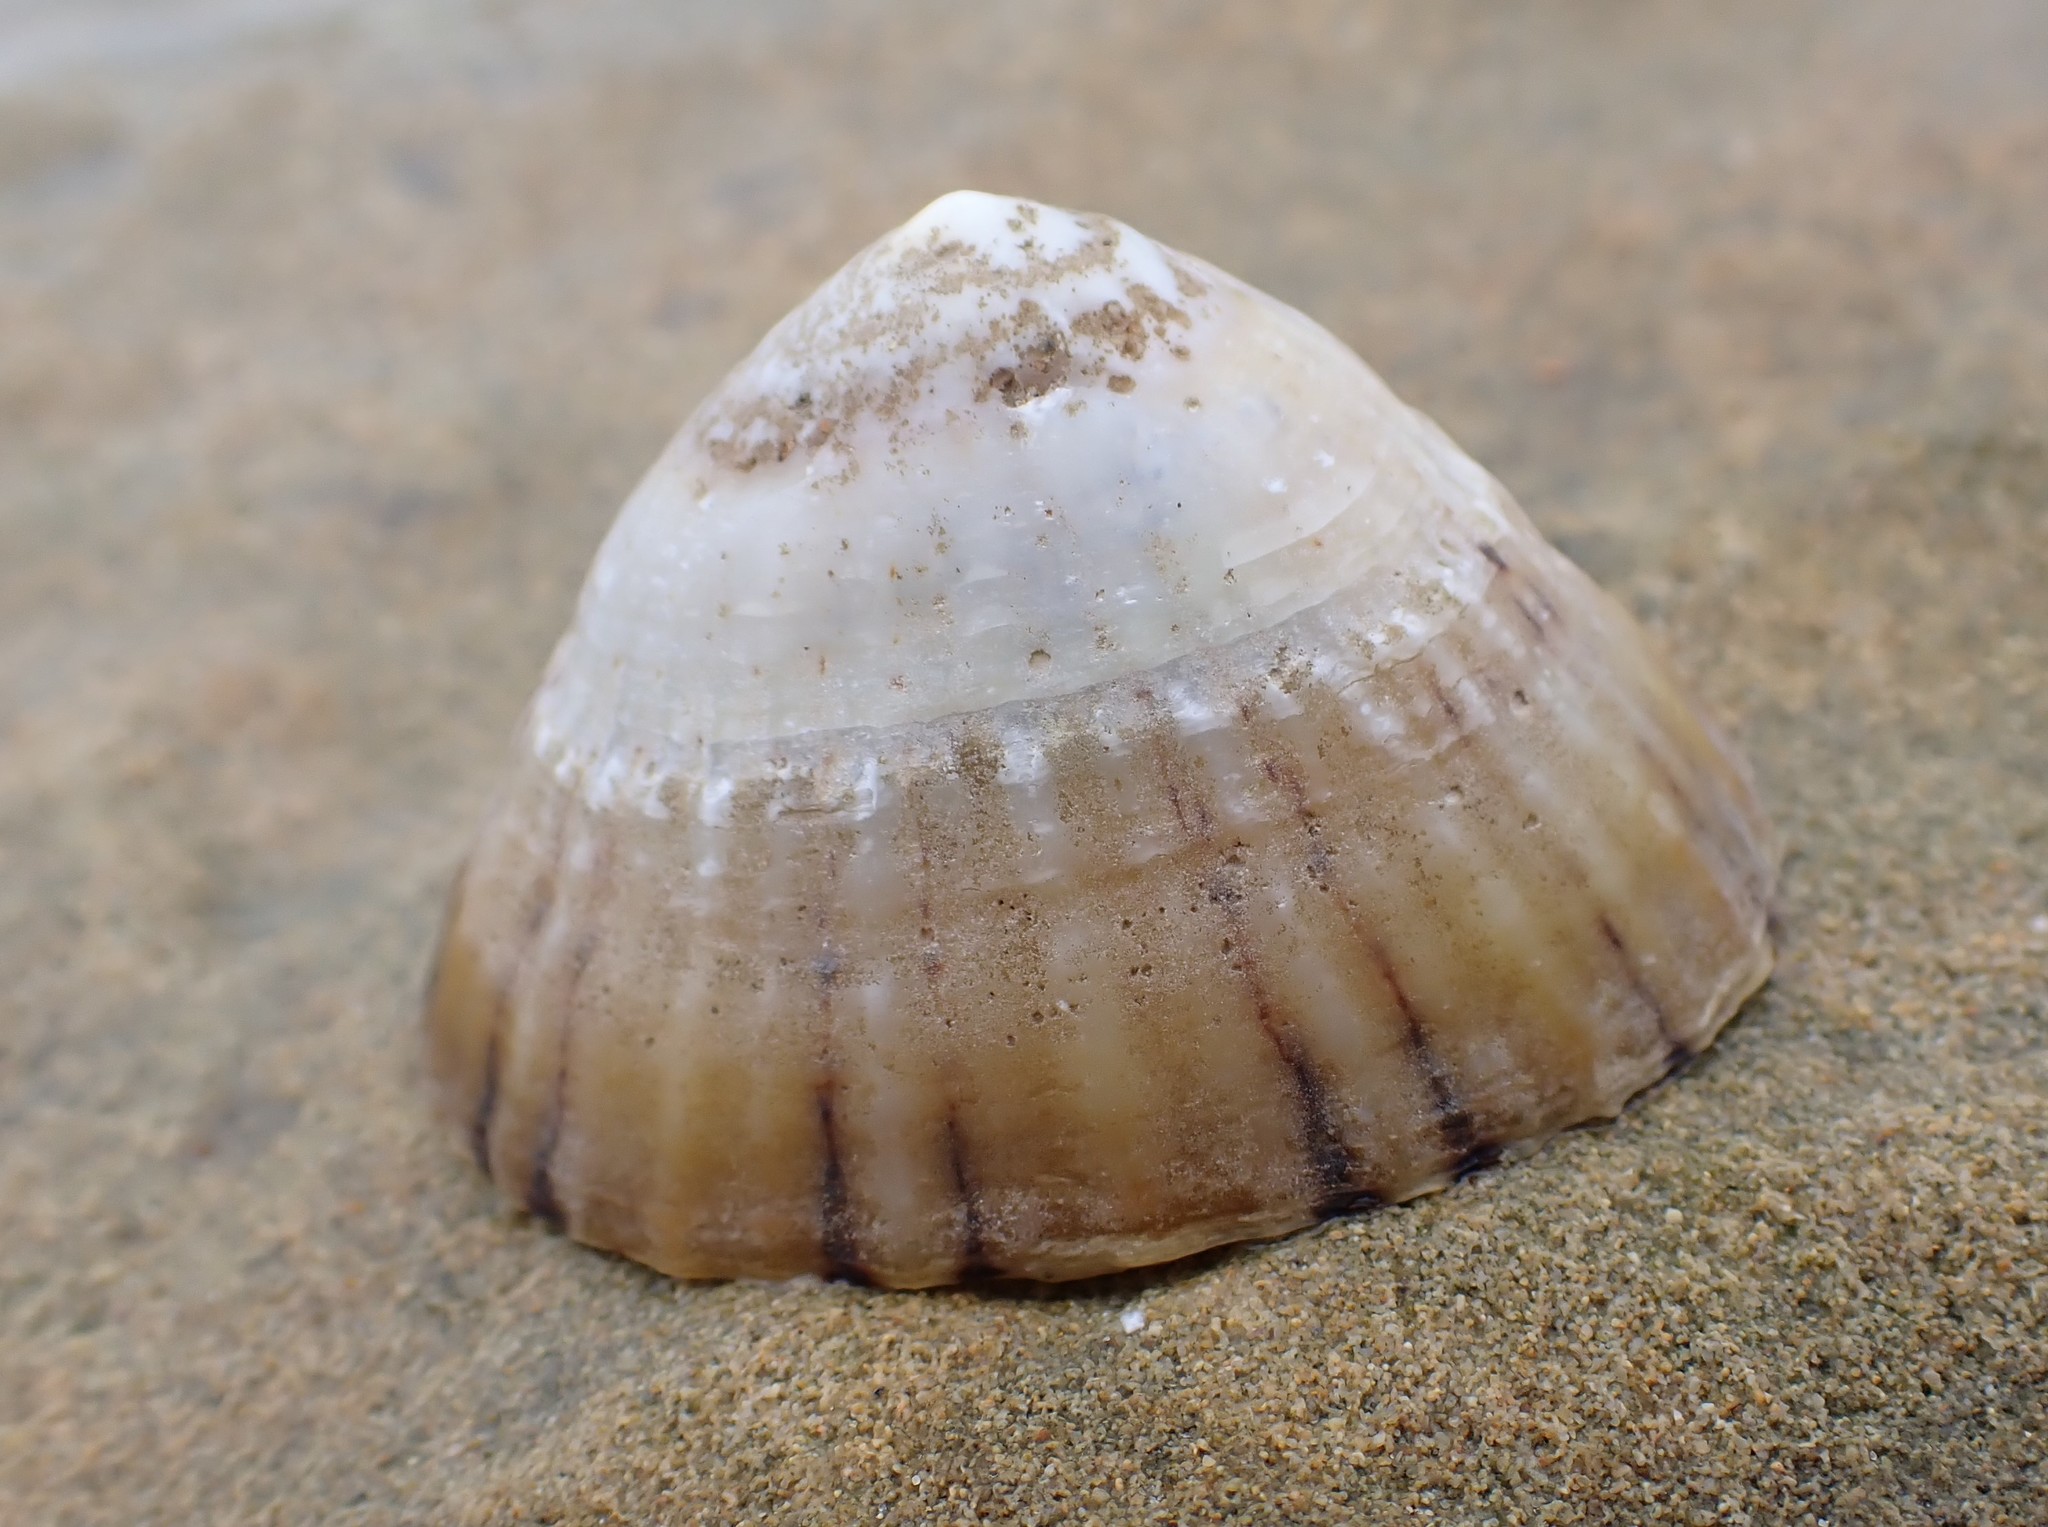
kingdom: Animalia
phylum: Mollusca
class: Gastropoda
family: Nacellidae
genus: Cellana
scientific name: Cellana tramoserica
